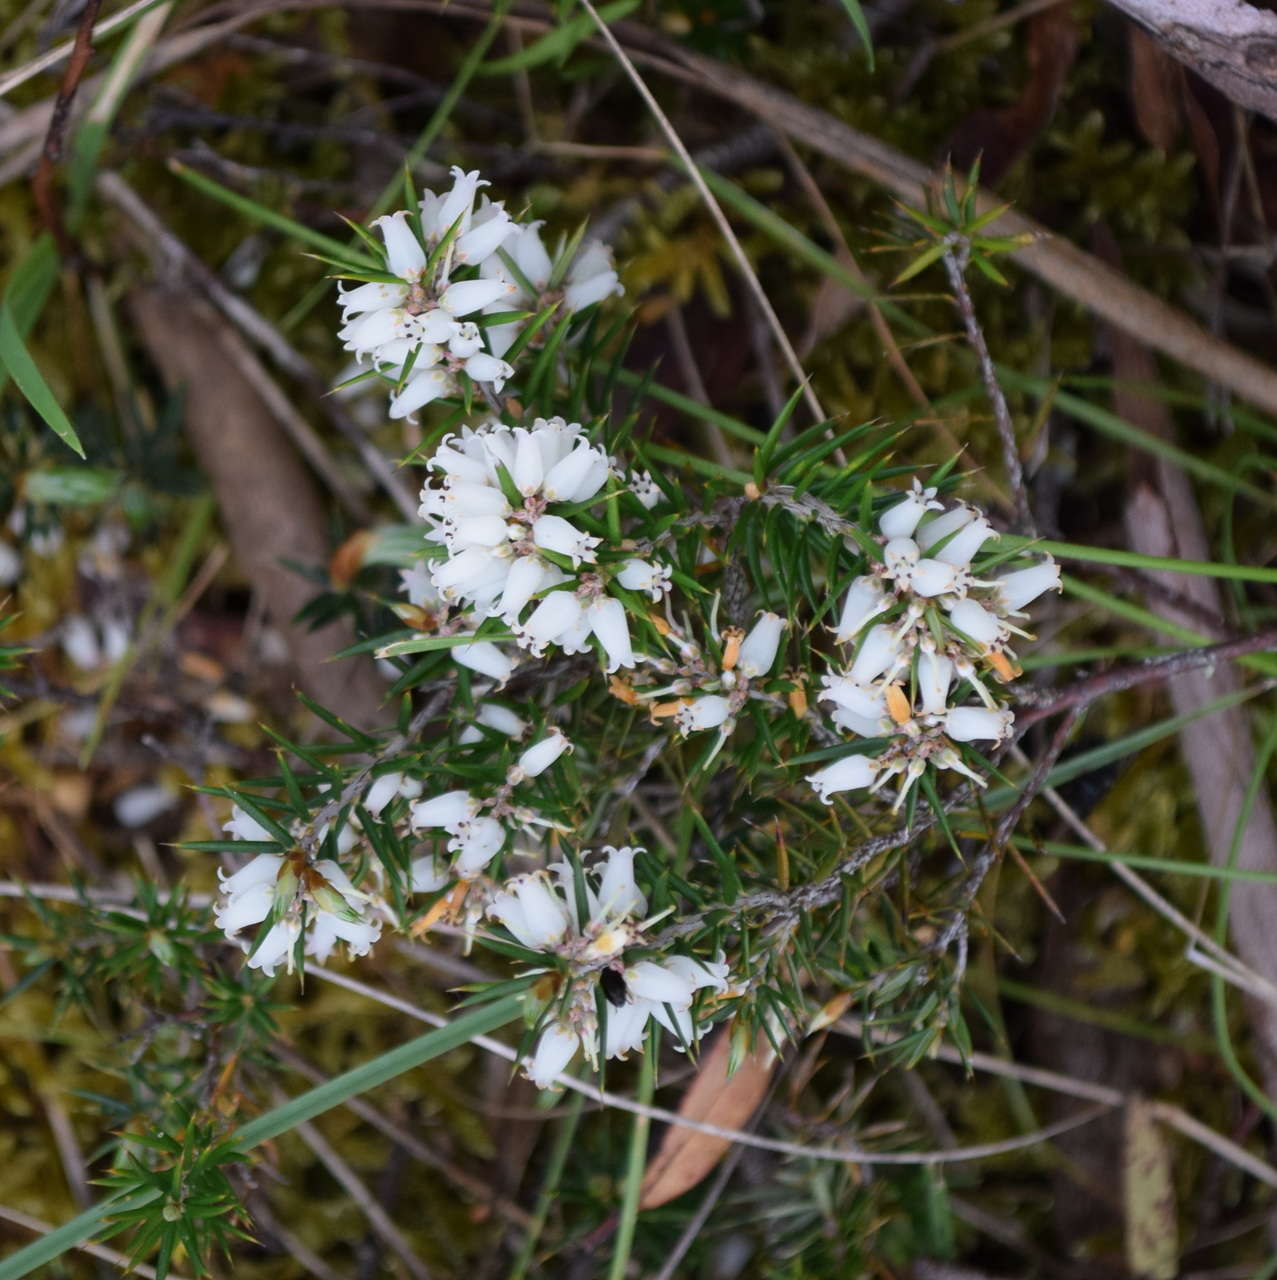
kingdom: Plantae
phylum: Tracheophyta
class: Magnoliopsida
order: Ericales
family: Ericaceae
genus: Lissanthe
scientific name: Lissanthe strigosa
